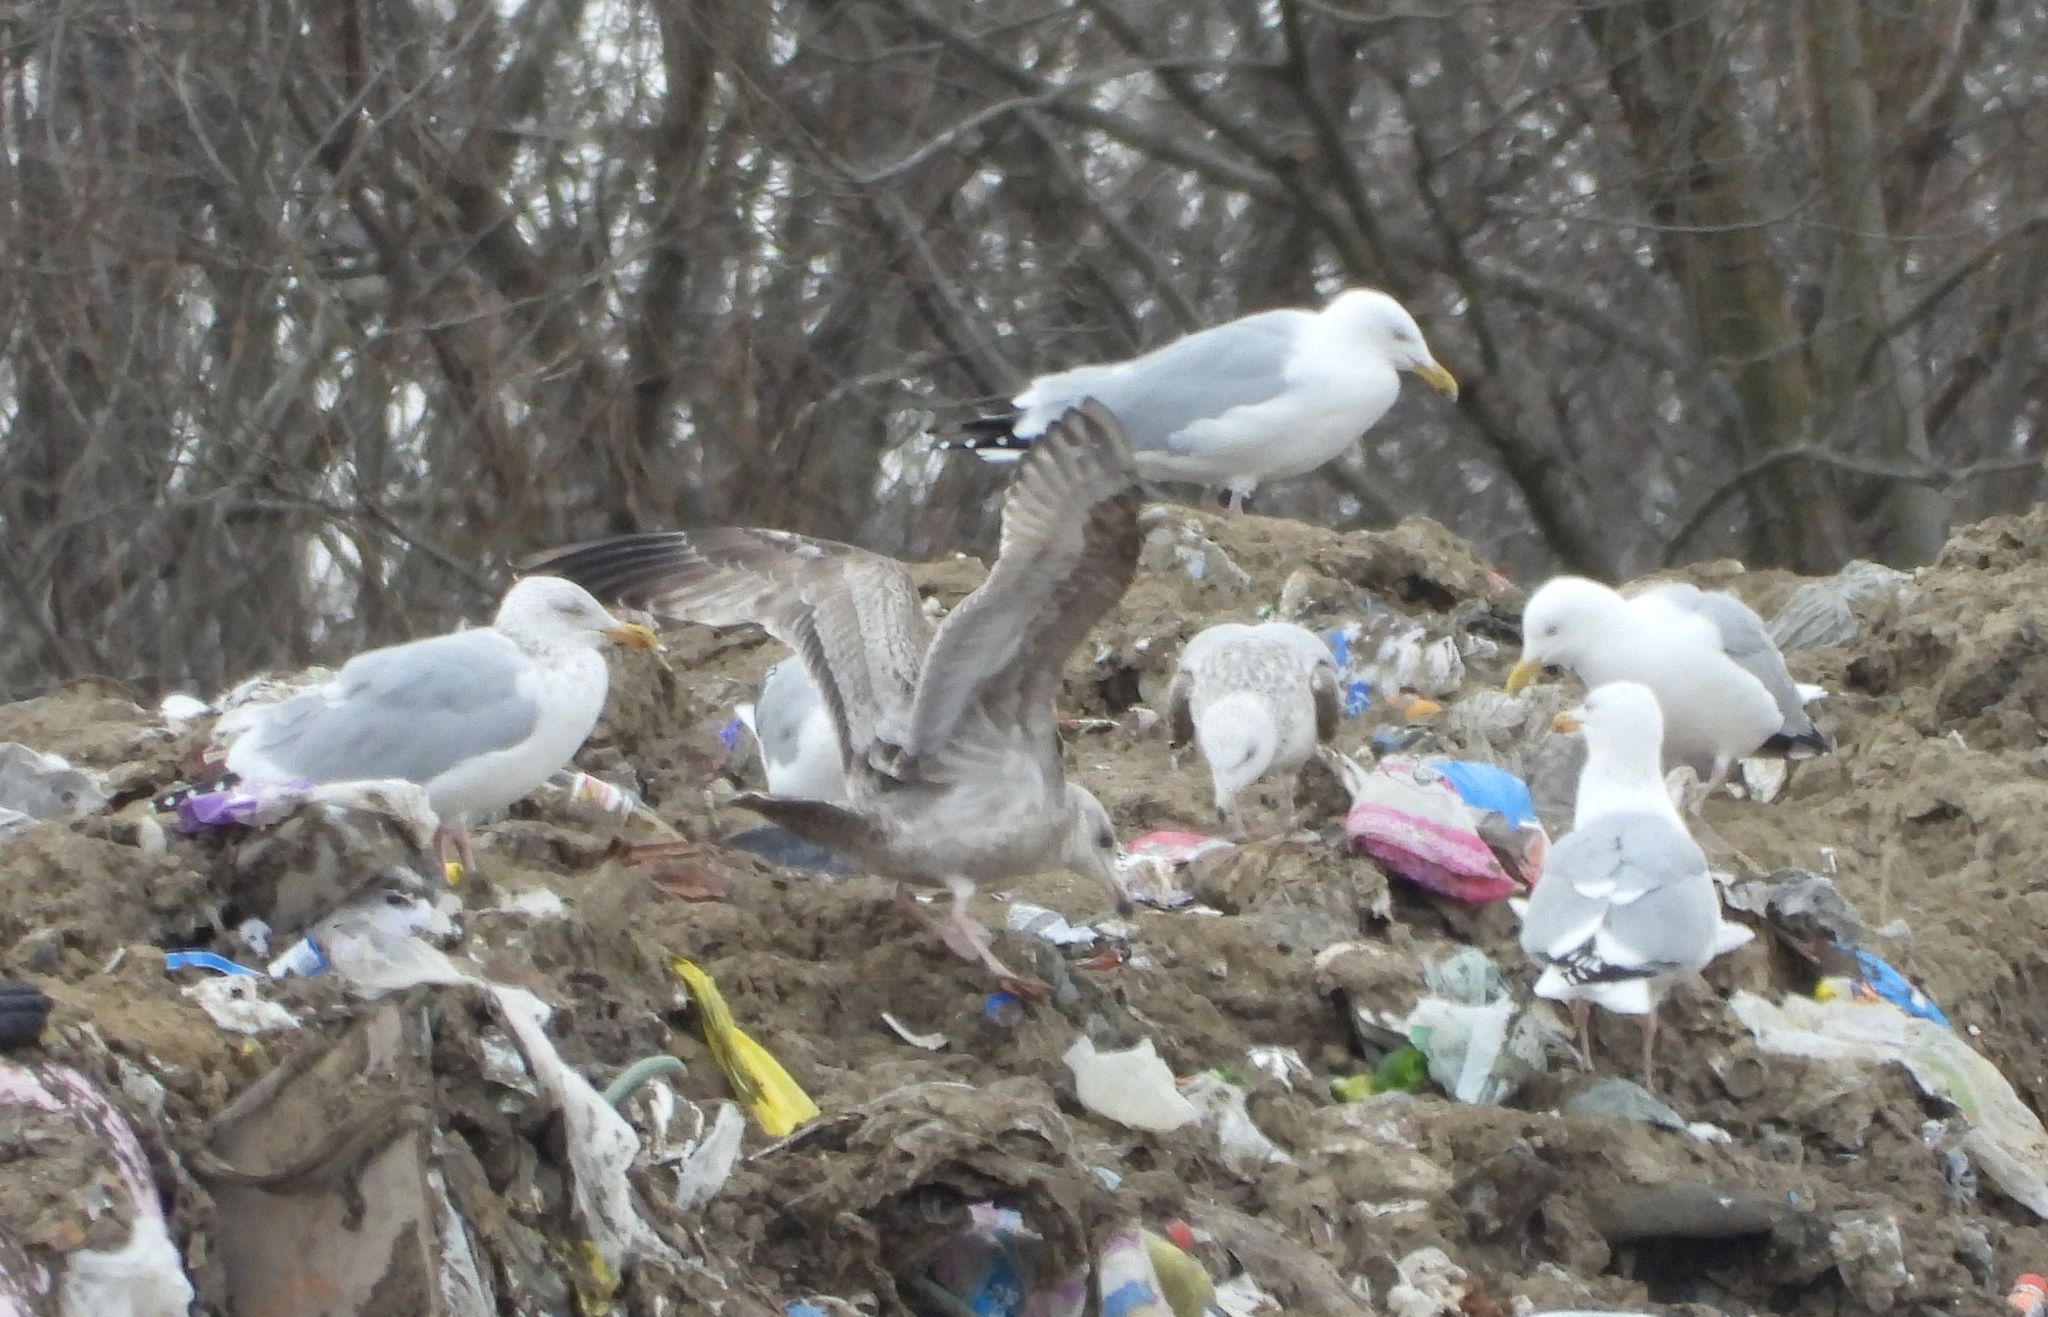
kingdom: Animalia
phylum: Chordata
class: Aves
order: Charadriiformes
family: Laridae
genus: Larus
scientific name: Larus argentatus
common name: Herring gull
